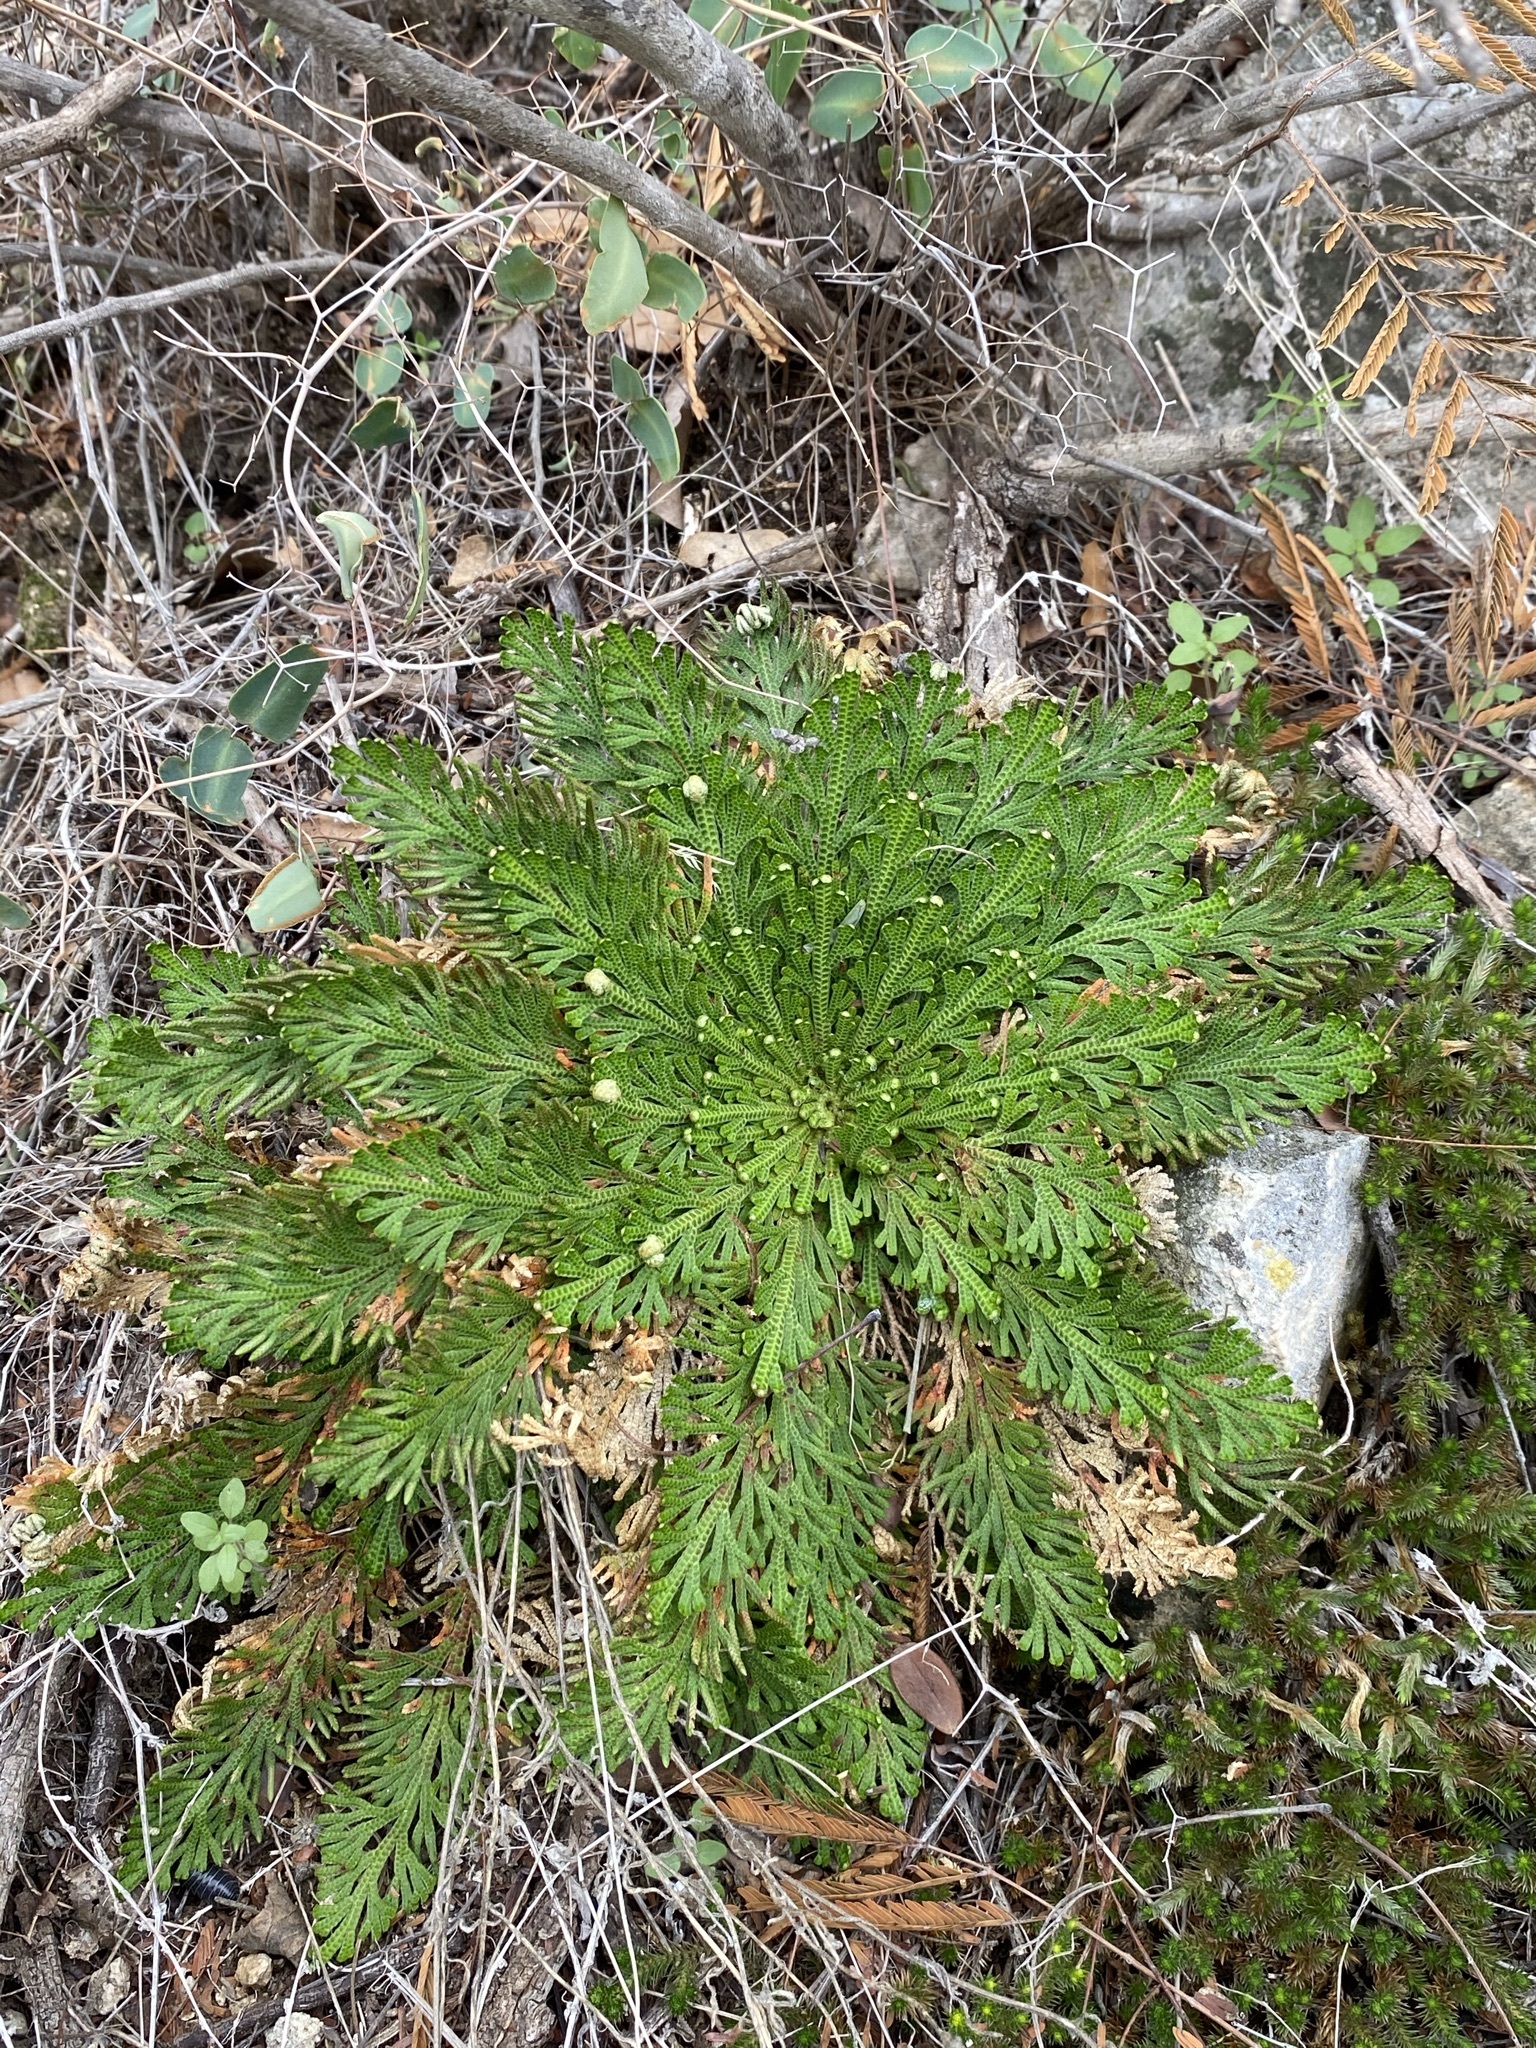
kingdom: Plantae
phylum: Tracheophyta
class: Lycopodiopsida
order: Selaginellales
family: Selaginellaceae
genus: Selaginella
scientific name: Selaginella lepidophylla
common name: Rose-of-jericho
